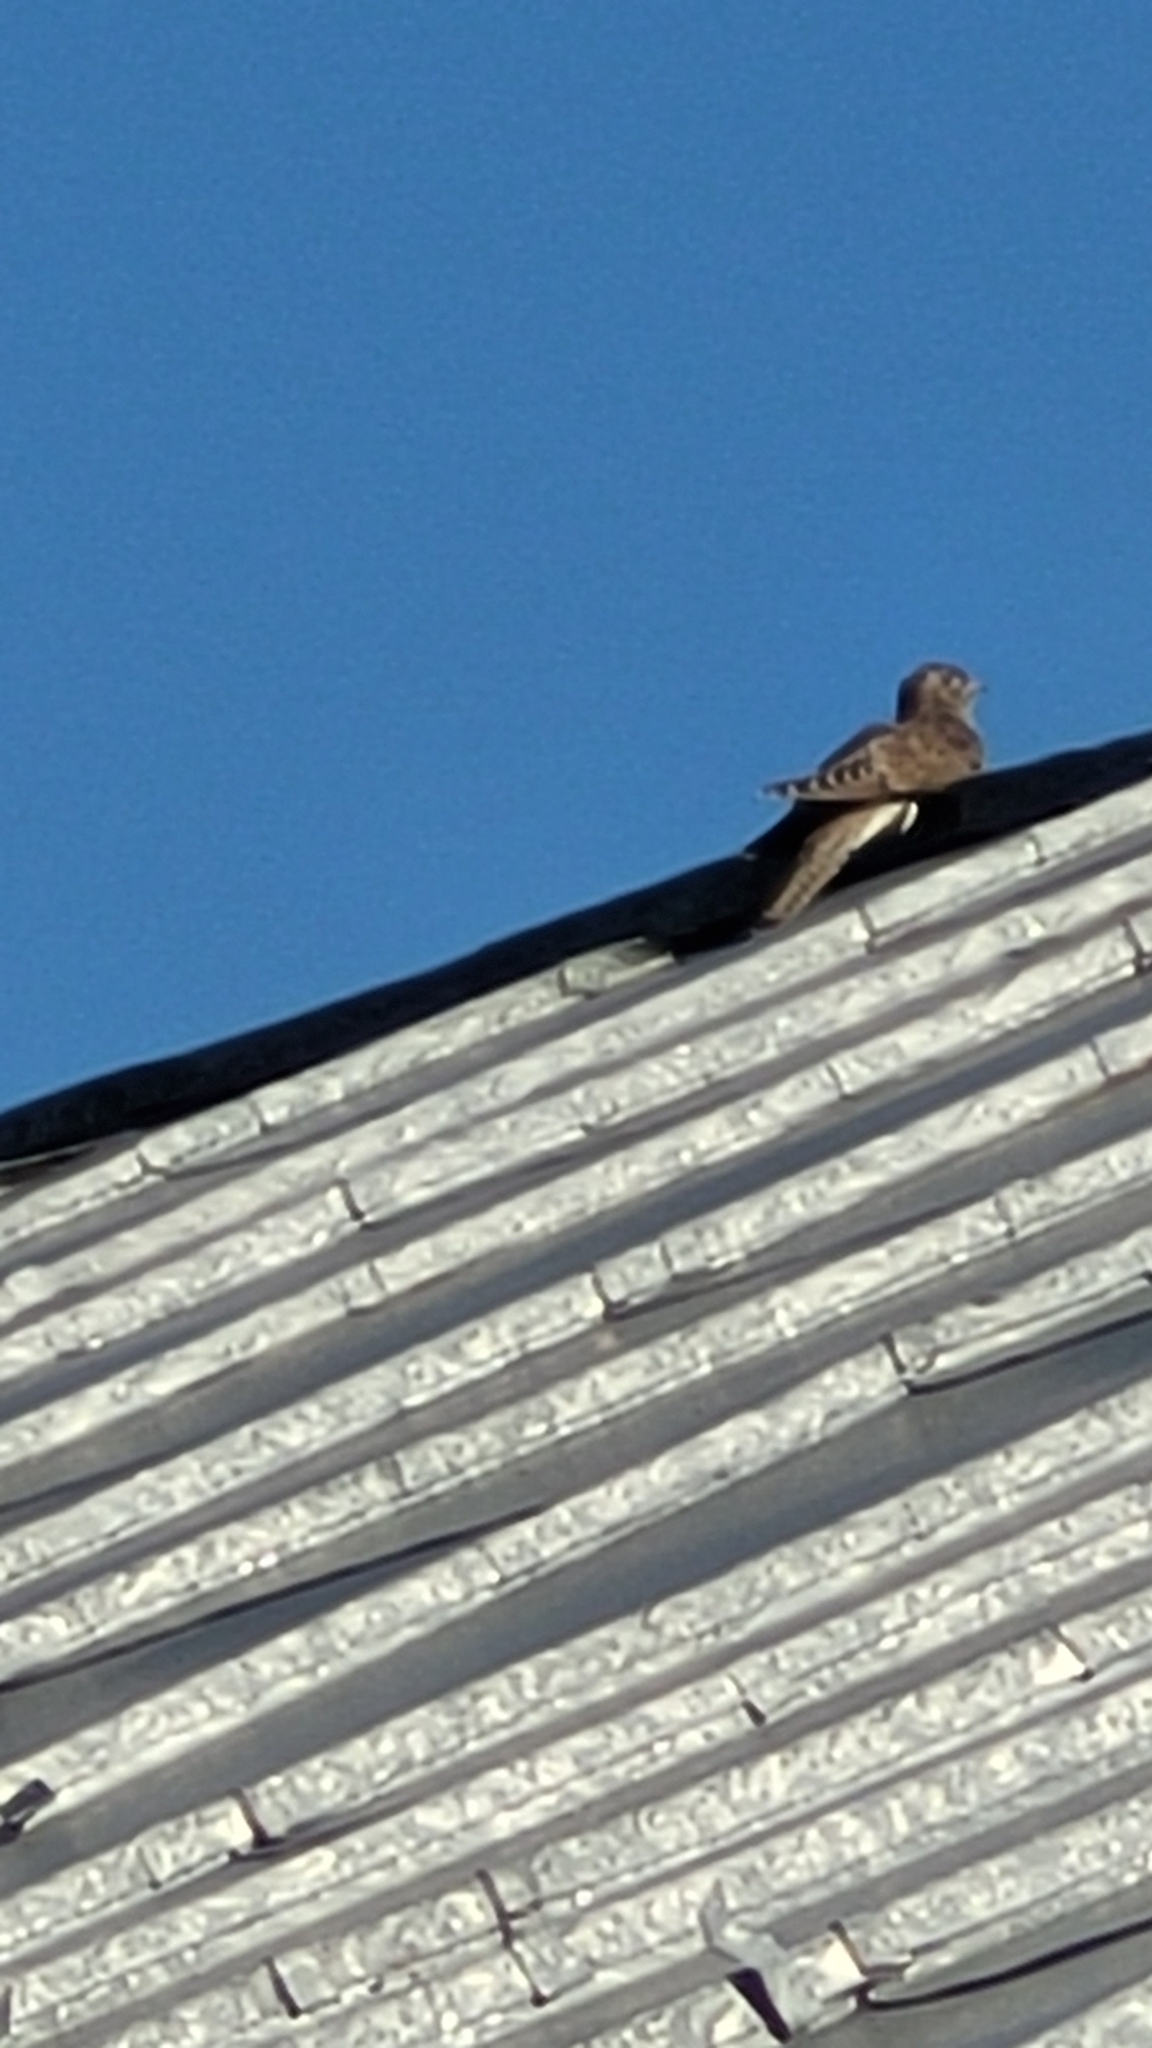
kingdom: Animalia
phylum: Chordata
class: Aves
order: Cuculiformes
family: Cuculidae
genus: Cuculus
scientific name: Cuculus canorus
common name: Common cuckoo
